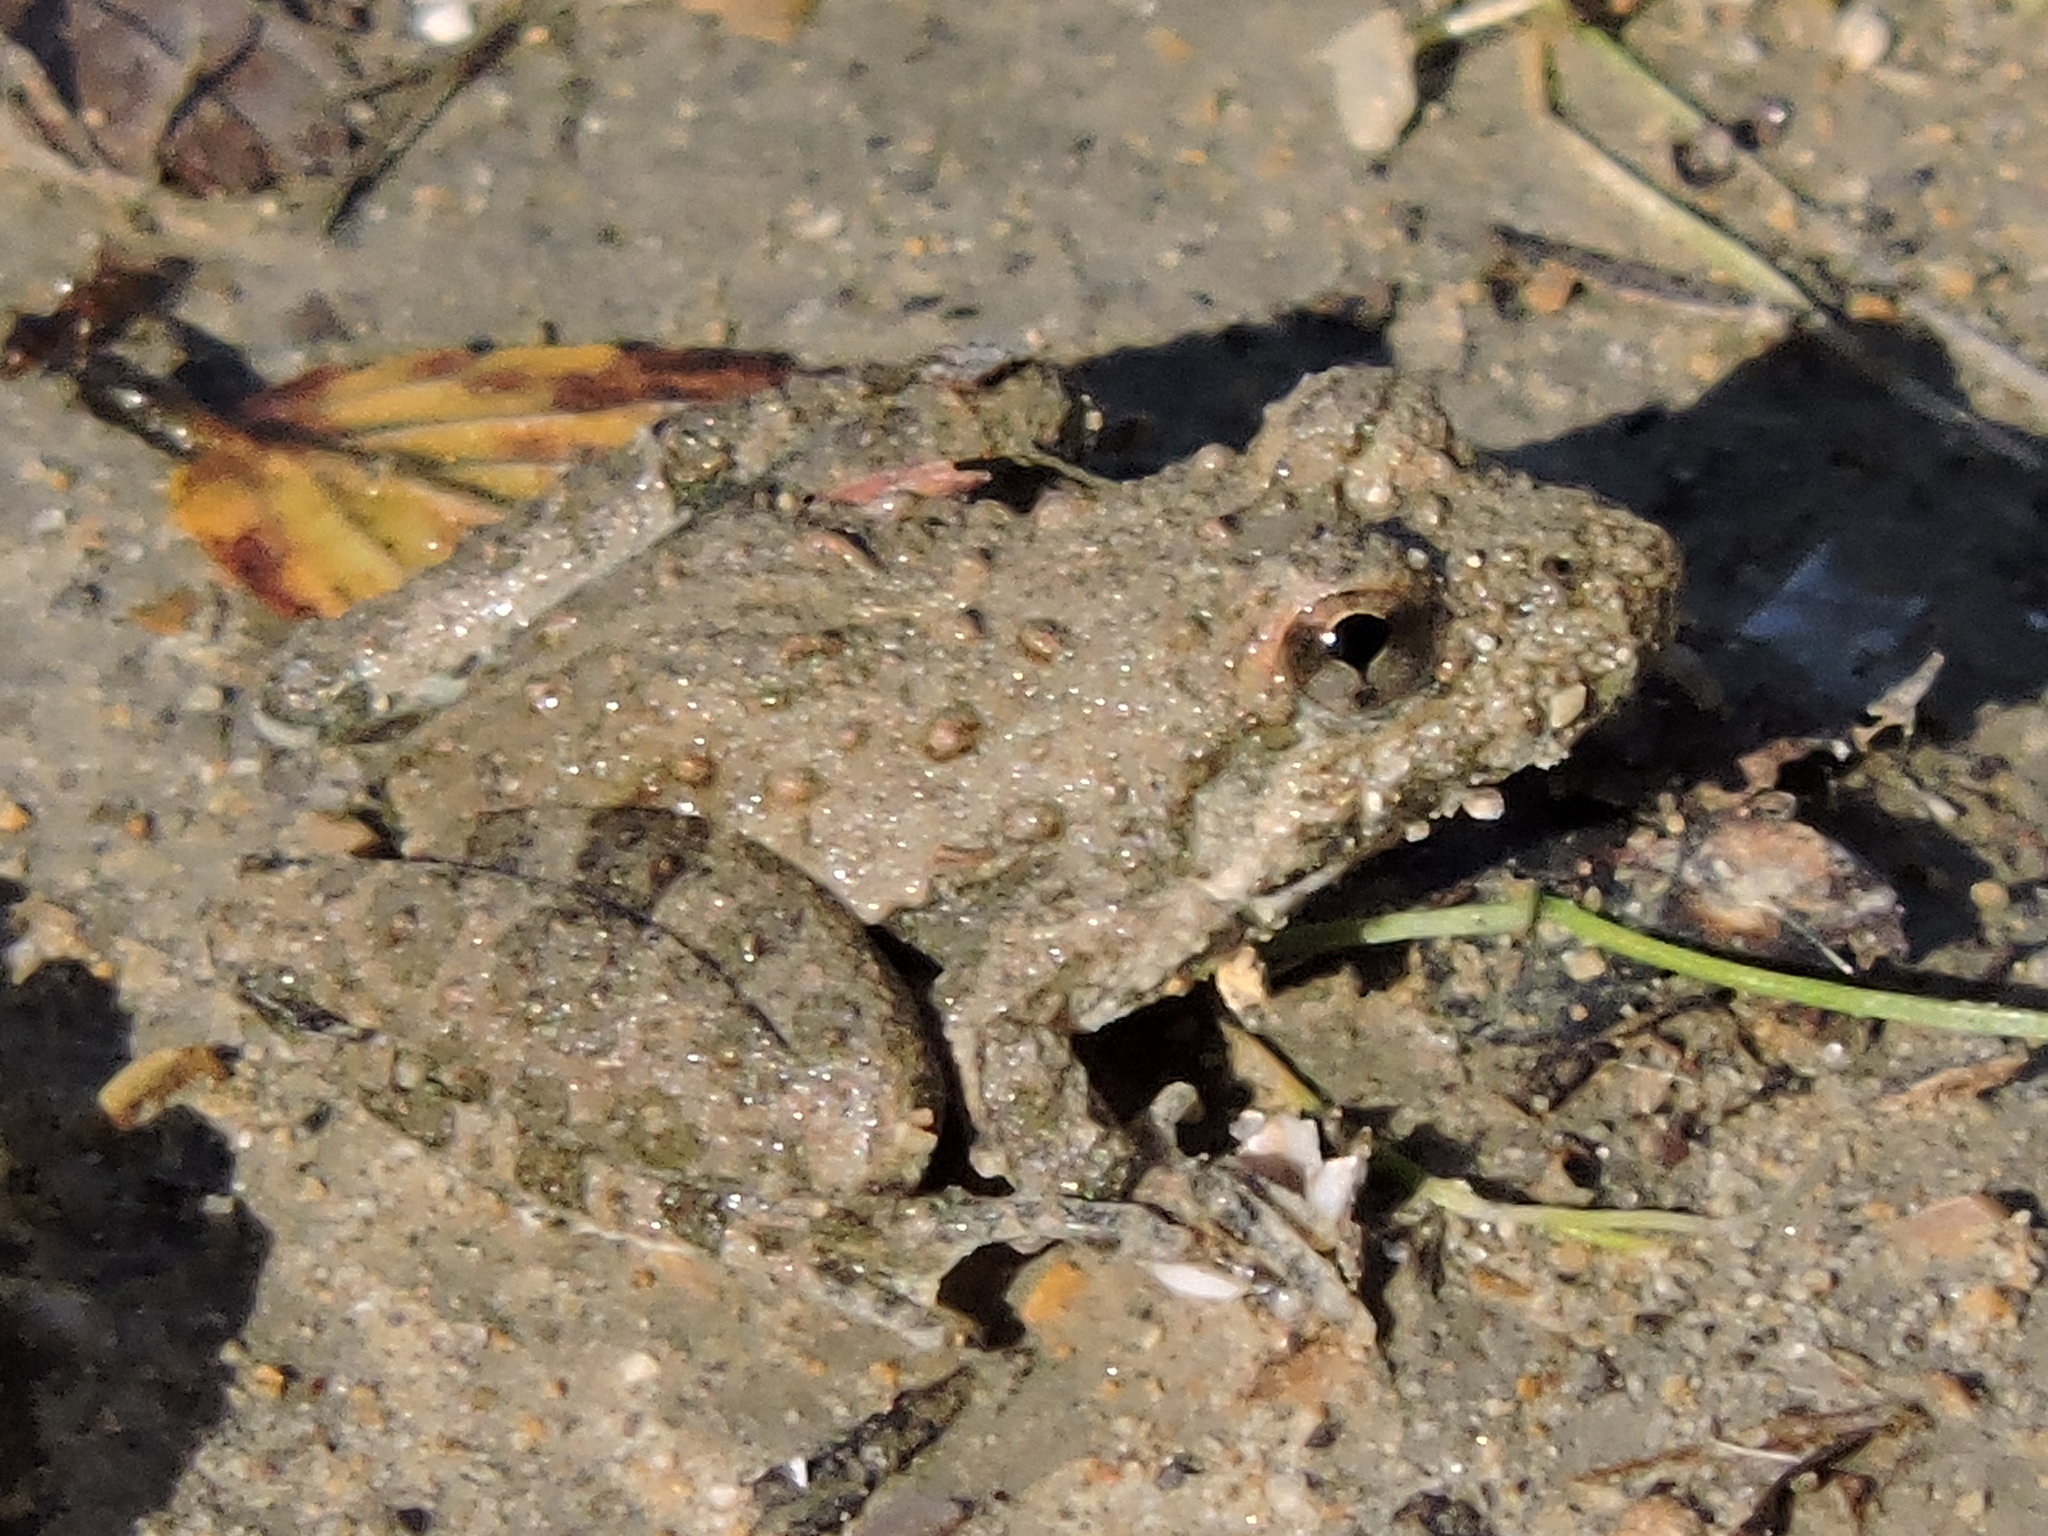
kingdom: Animalia
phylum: Chordata
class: Amphibia
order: Anura
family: Hylidae
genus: Acris
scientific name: Acris blanchardi
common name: Blanchard's cricket frog
